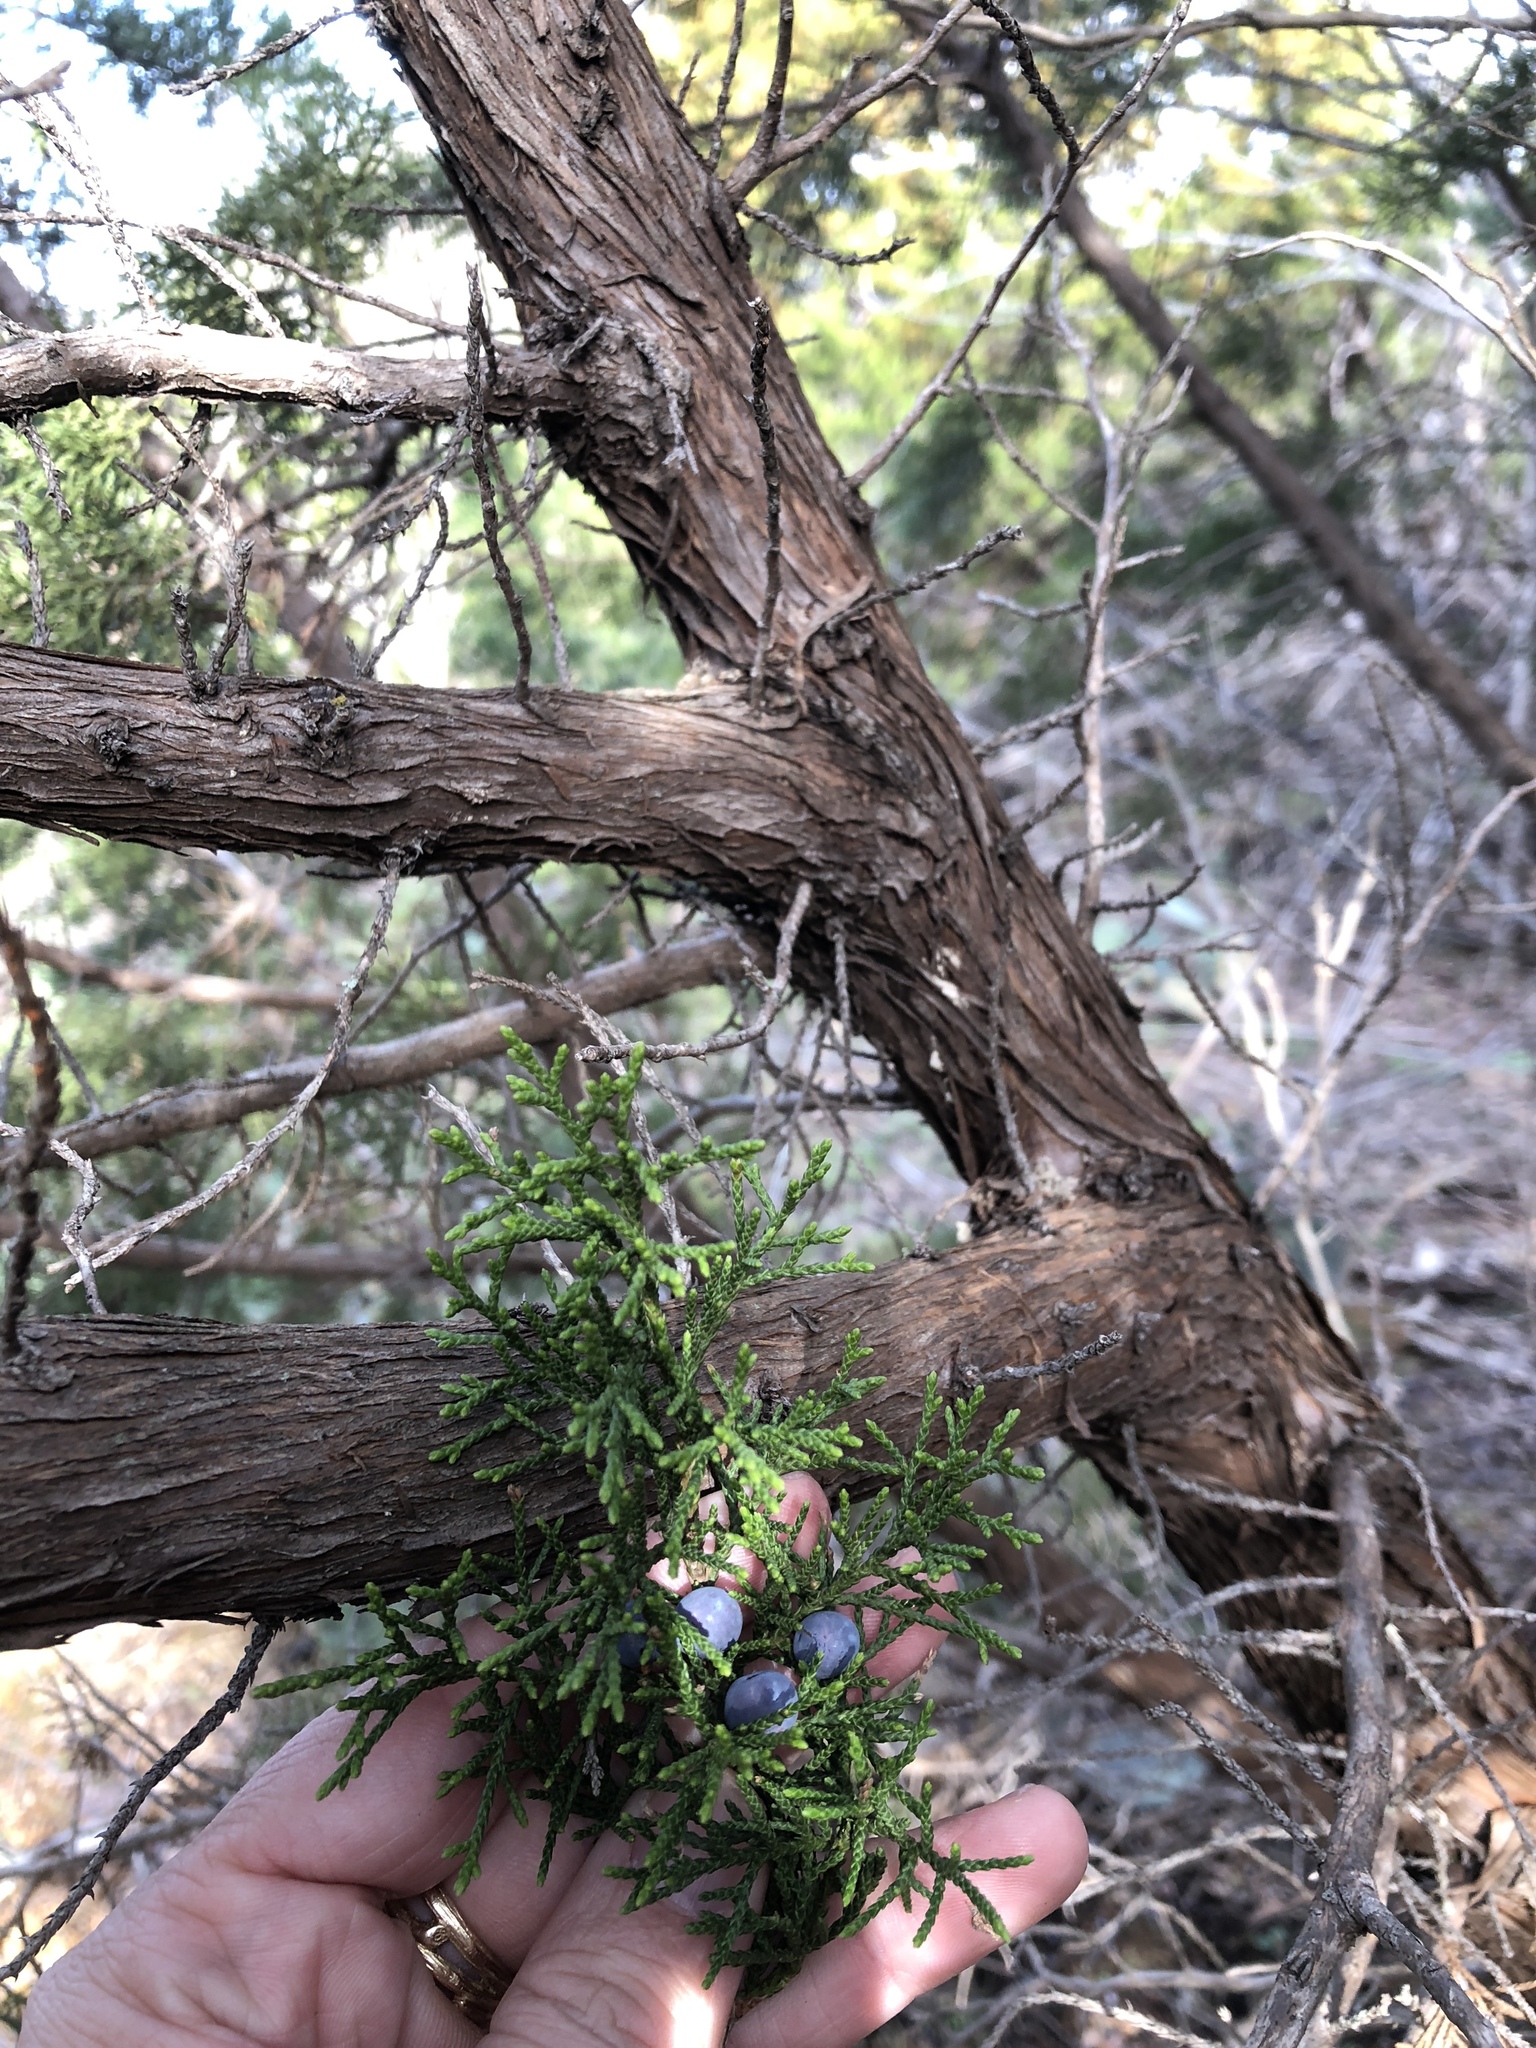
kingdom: Plantae
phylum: Tracheophyta
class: Pinopsida
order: Pinales
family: Cupressaceae
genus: Juniperus
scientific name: Juniperus ashei
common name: Mexican juniper
